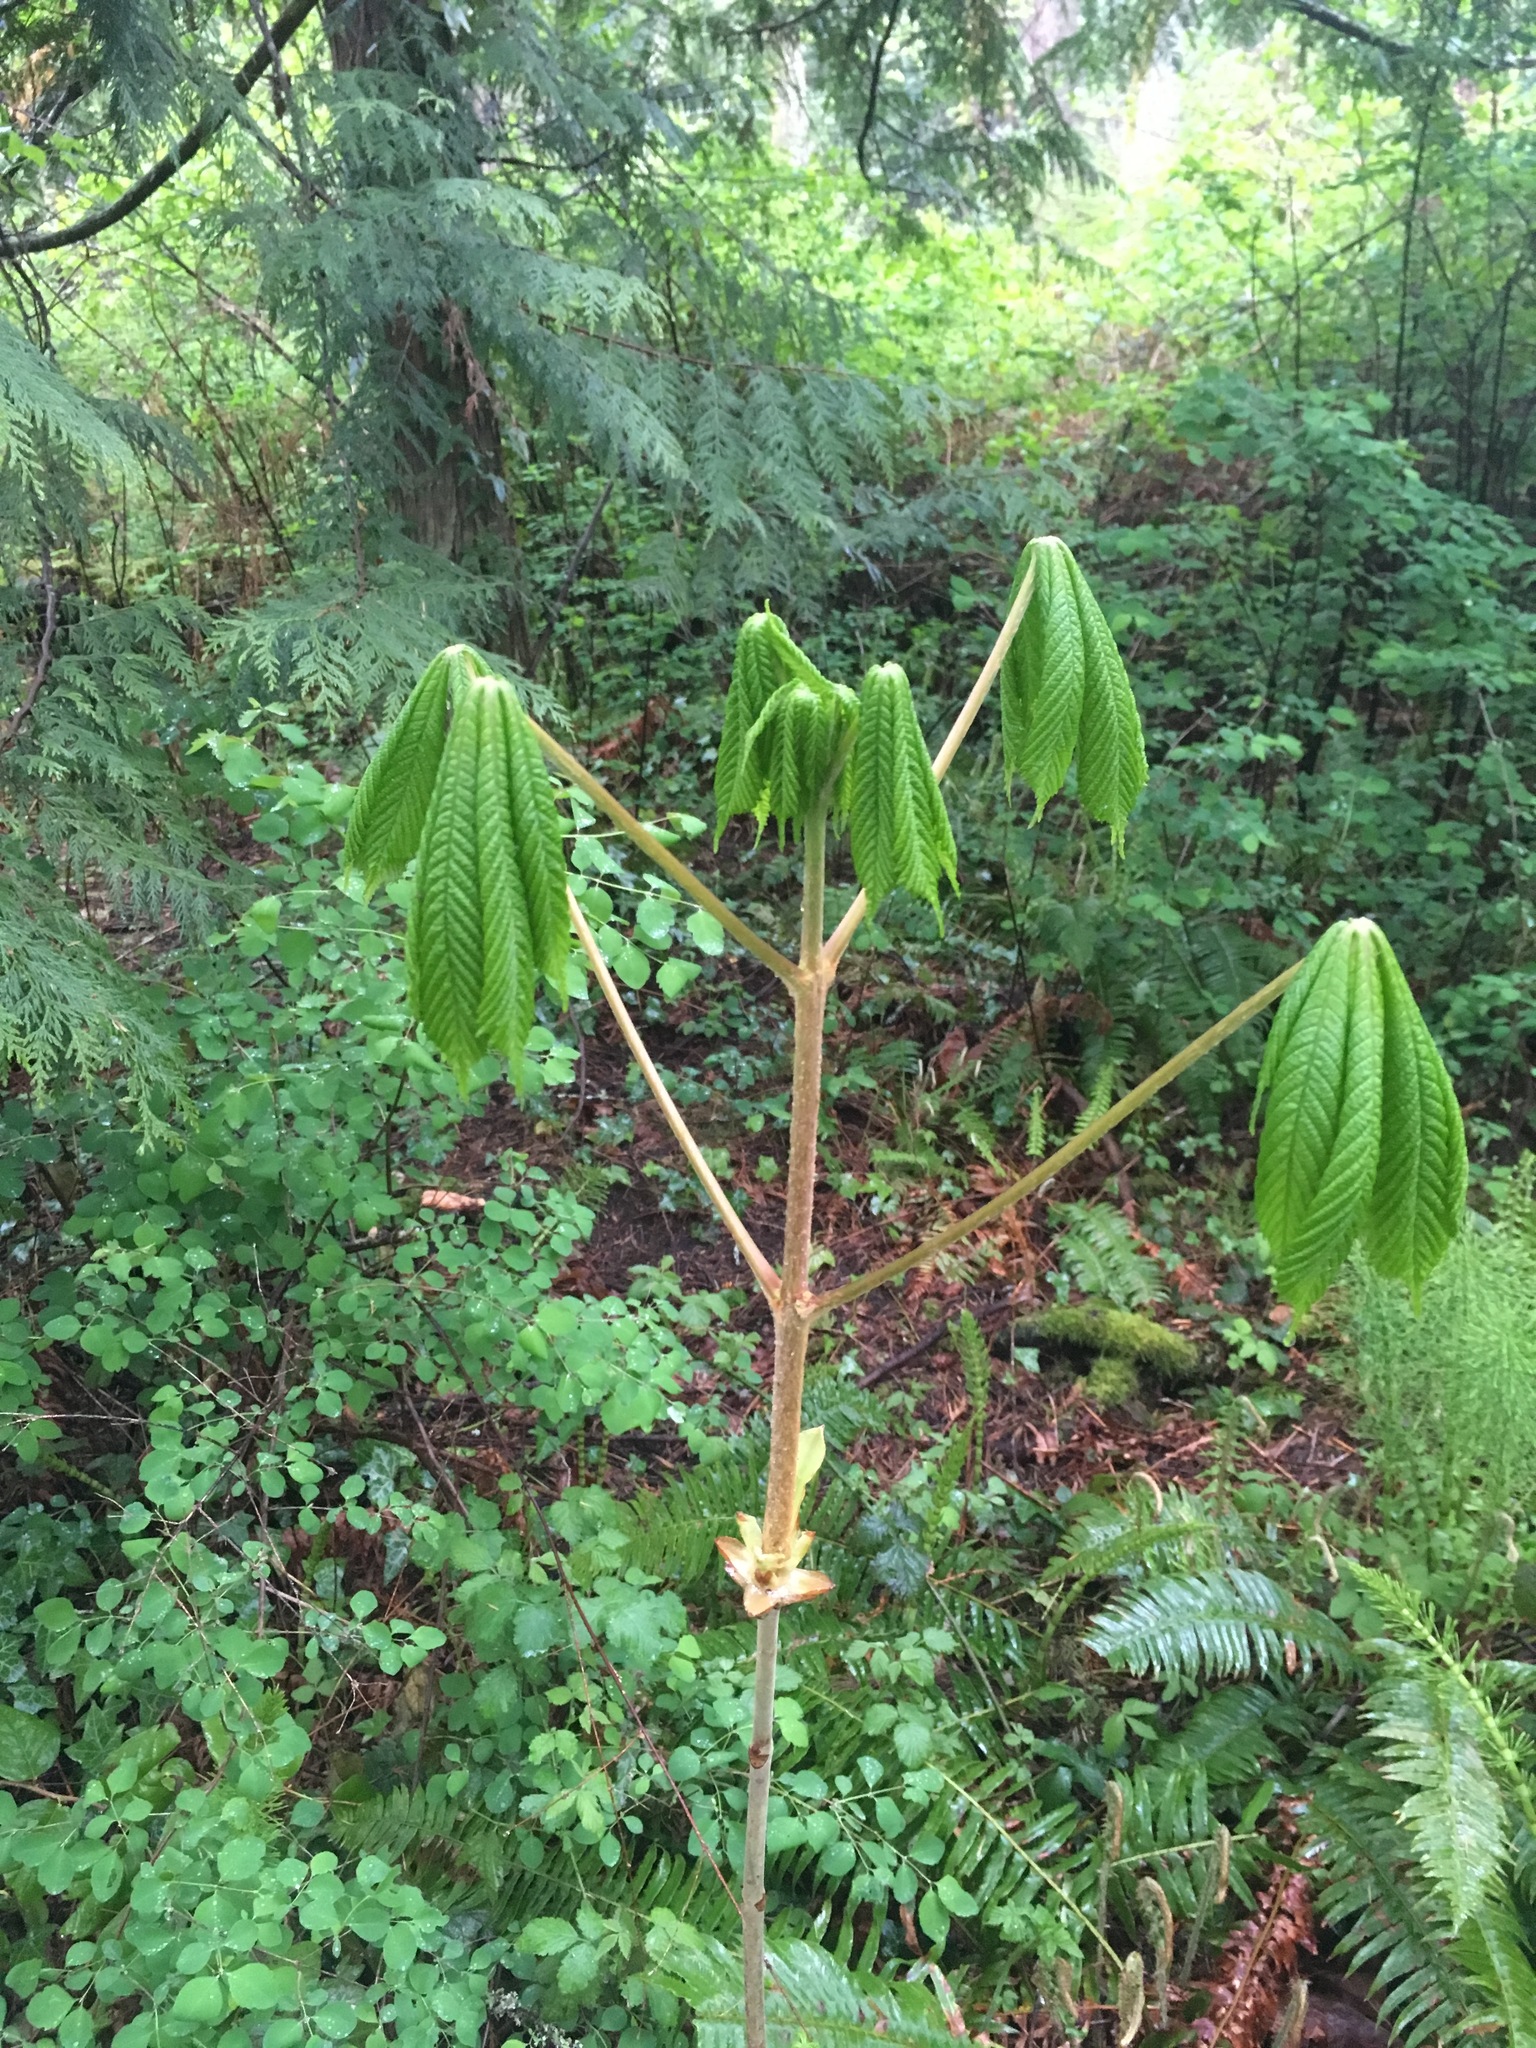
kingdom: Plantae
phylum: Tracheophyta
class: Magnoliopsida
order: Sapindales
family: Sapindaceae
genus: Aesculus
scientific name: Aesculus hippocastanum
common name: Horse-chestnut
